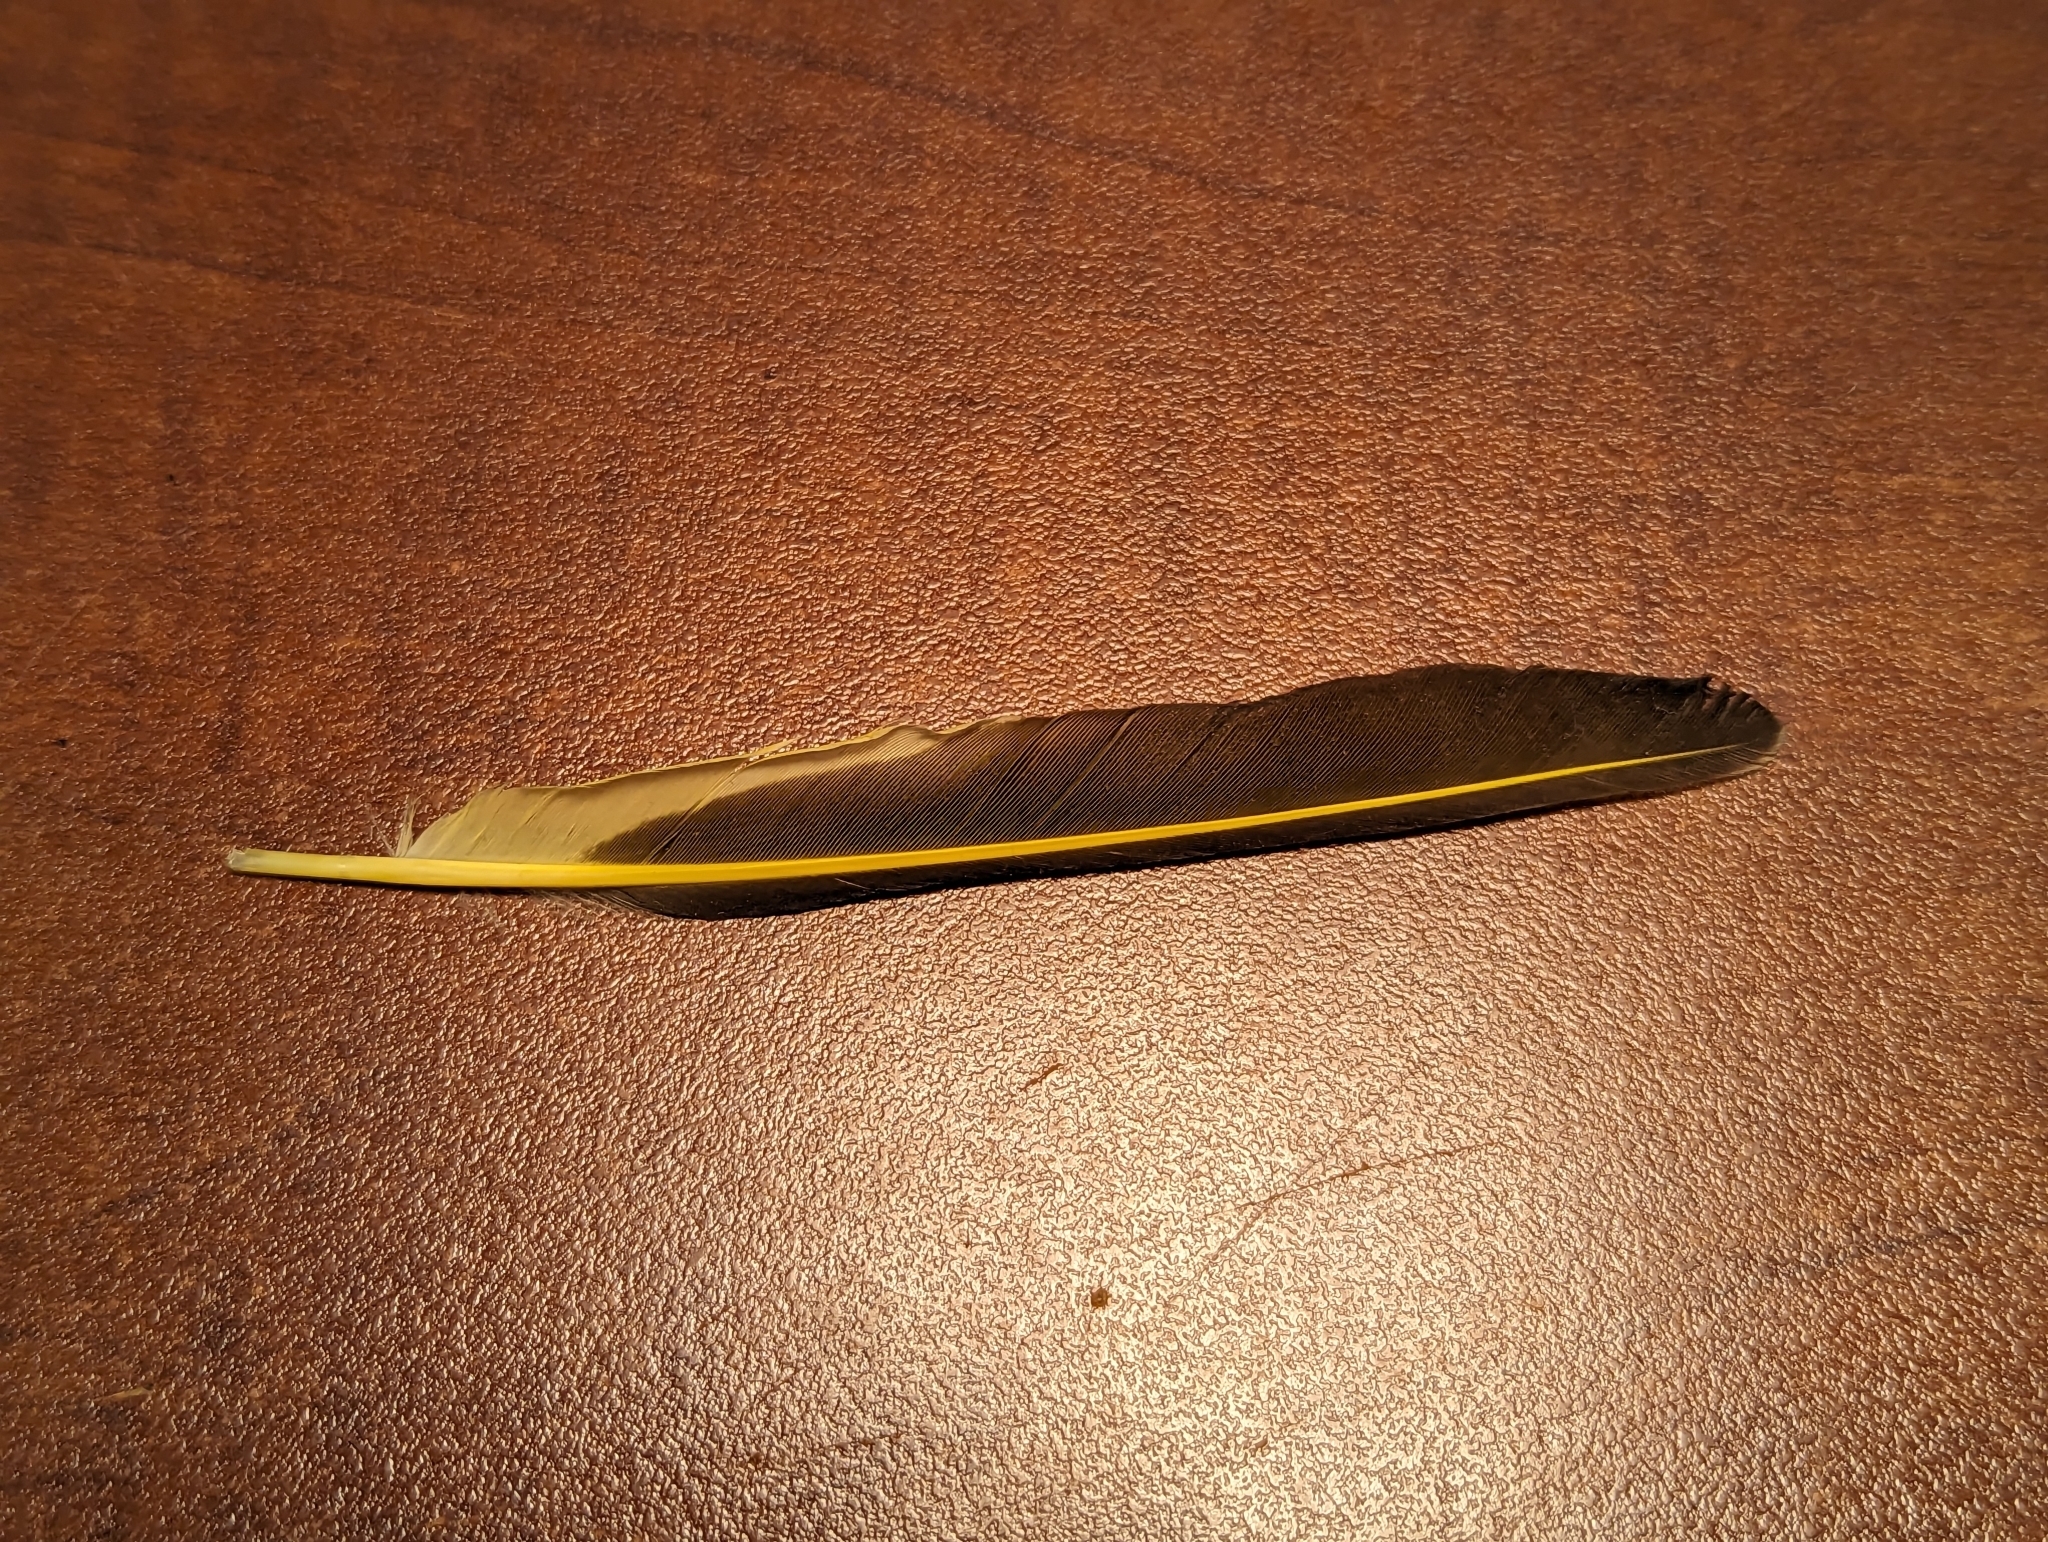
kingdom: Animalia
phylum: Chordata
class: Aves
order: Piciformes
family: Picidae
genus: Colaptes
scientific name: Colaptes auratus
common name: Northern flicker
